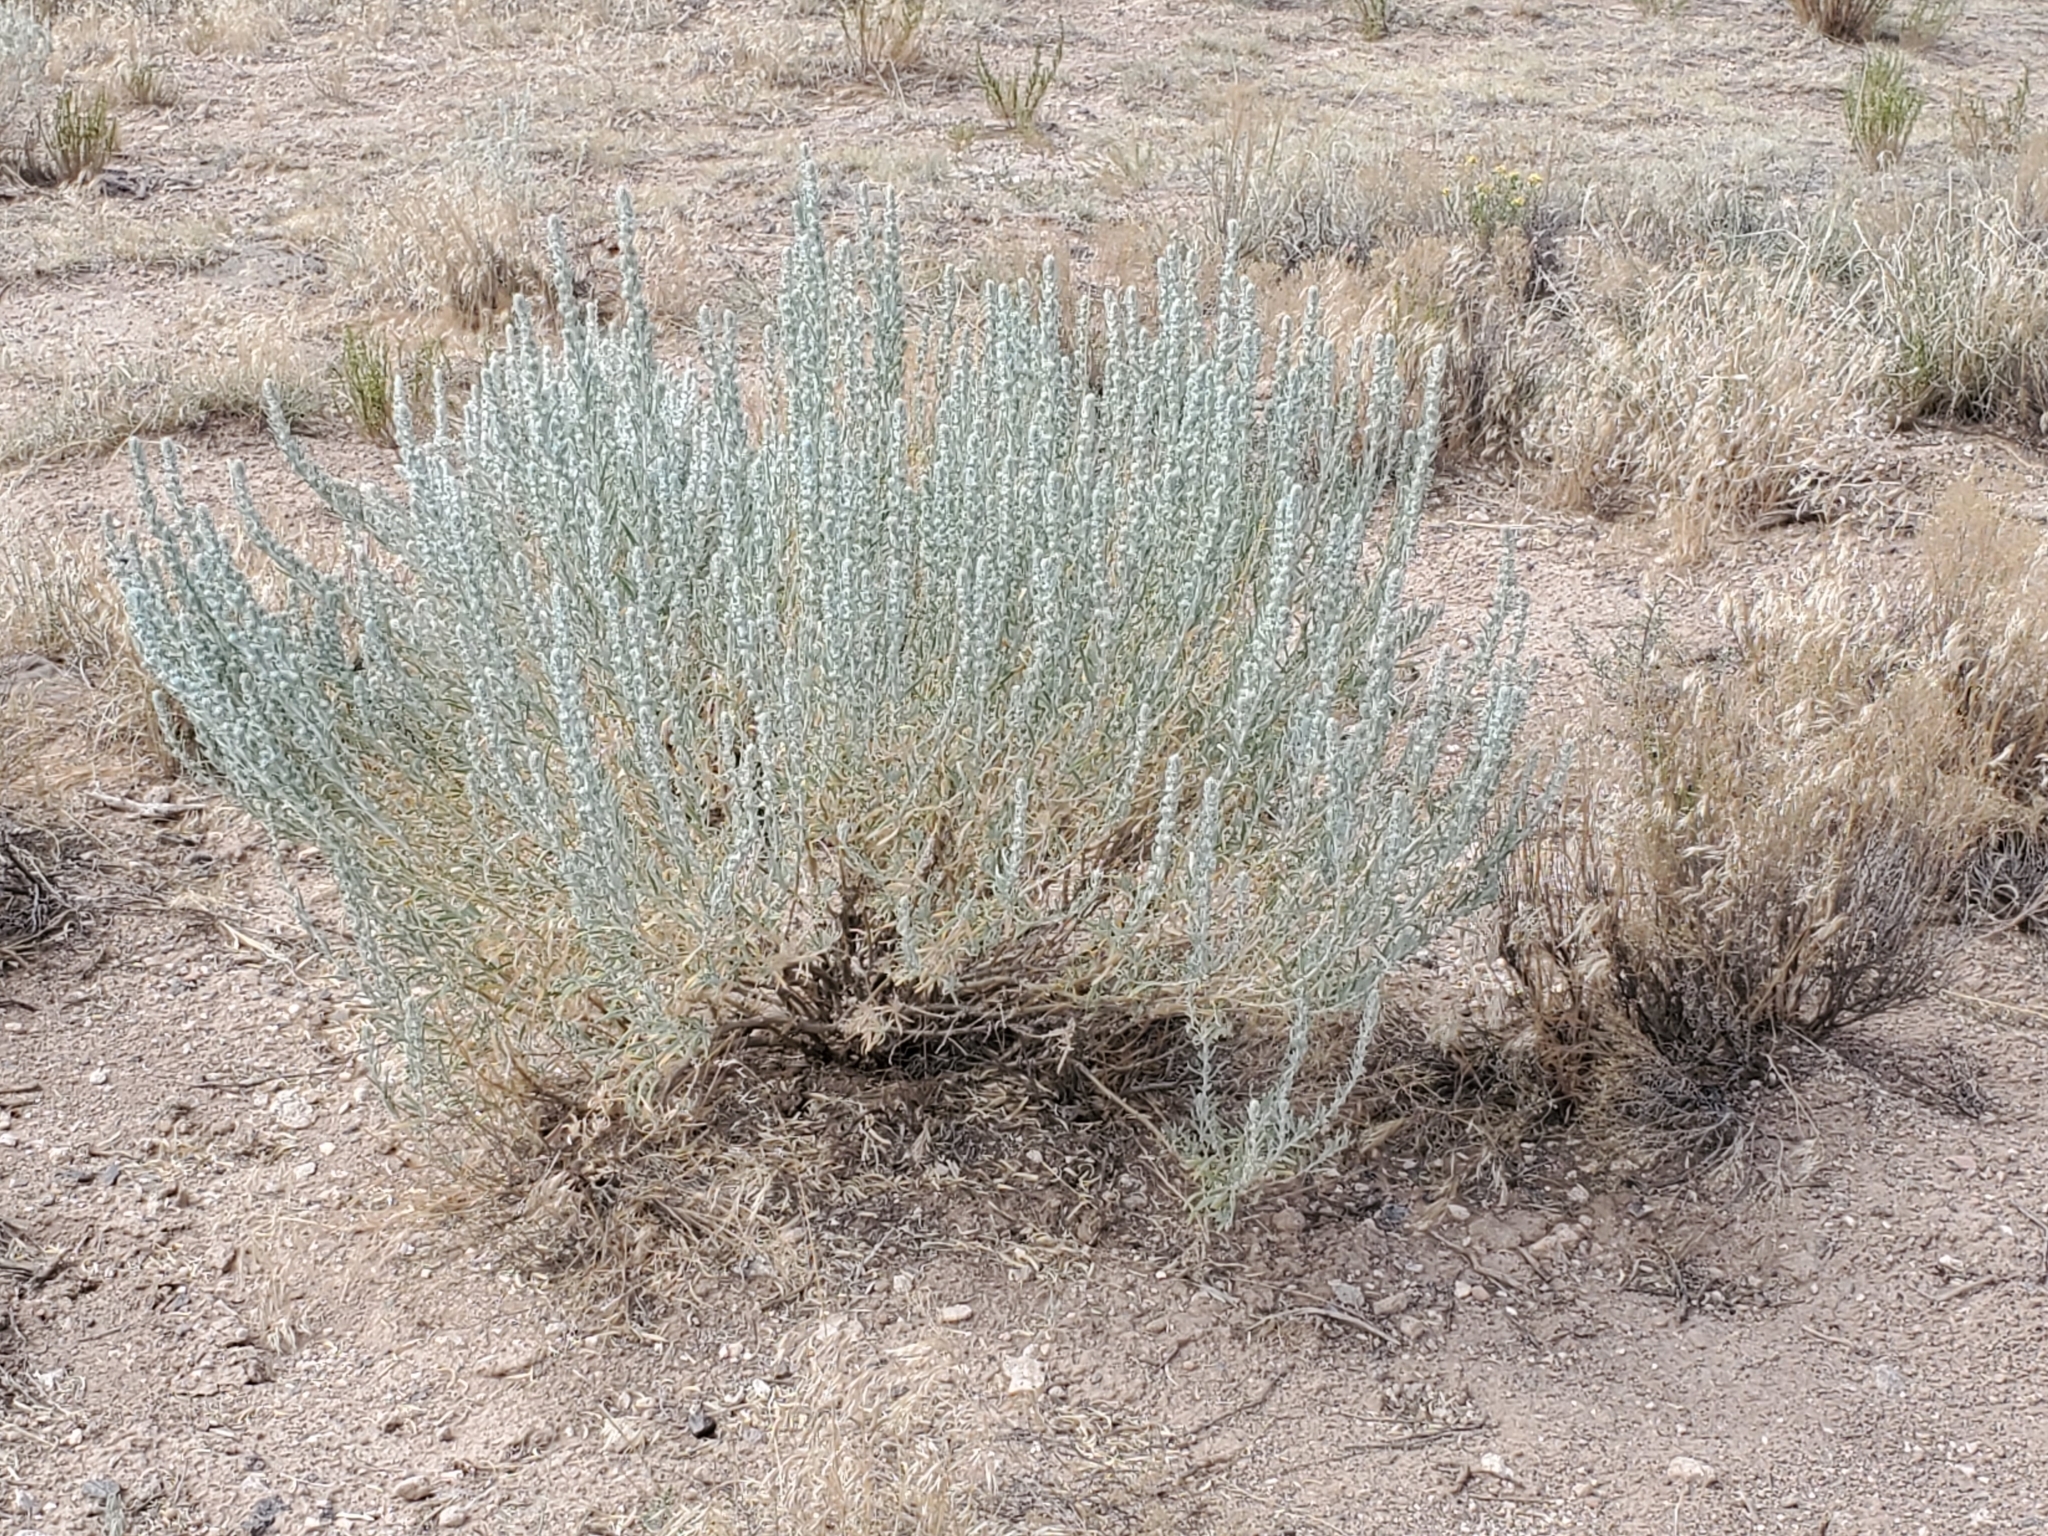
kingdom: Plantae
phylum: Tracheophyta
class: Magnoliopsida
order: Caryophyllales
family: Amaranthaceae
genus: Krascheninnikovia
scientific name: Krascheninnikovia lanata
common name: Winterfat
